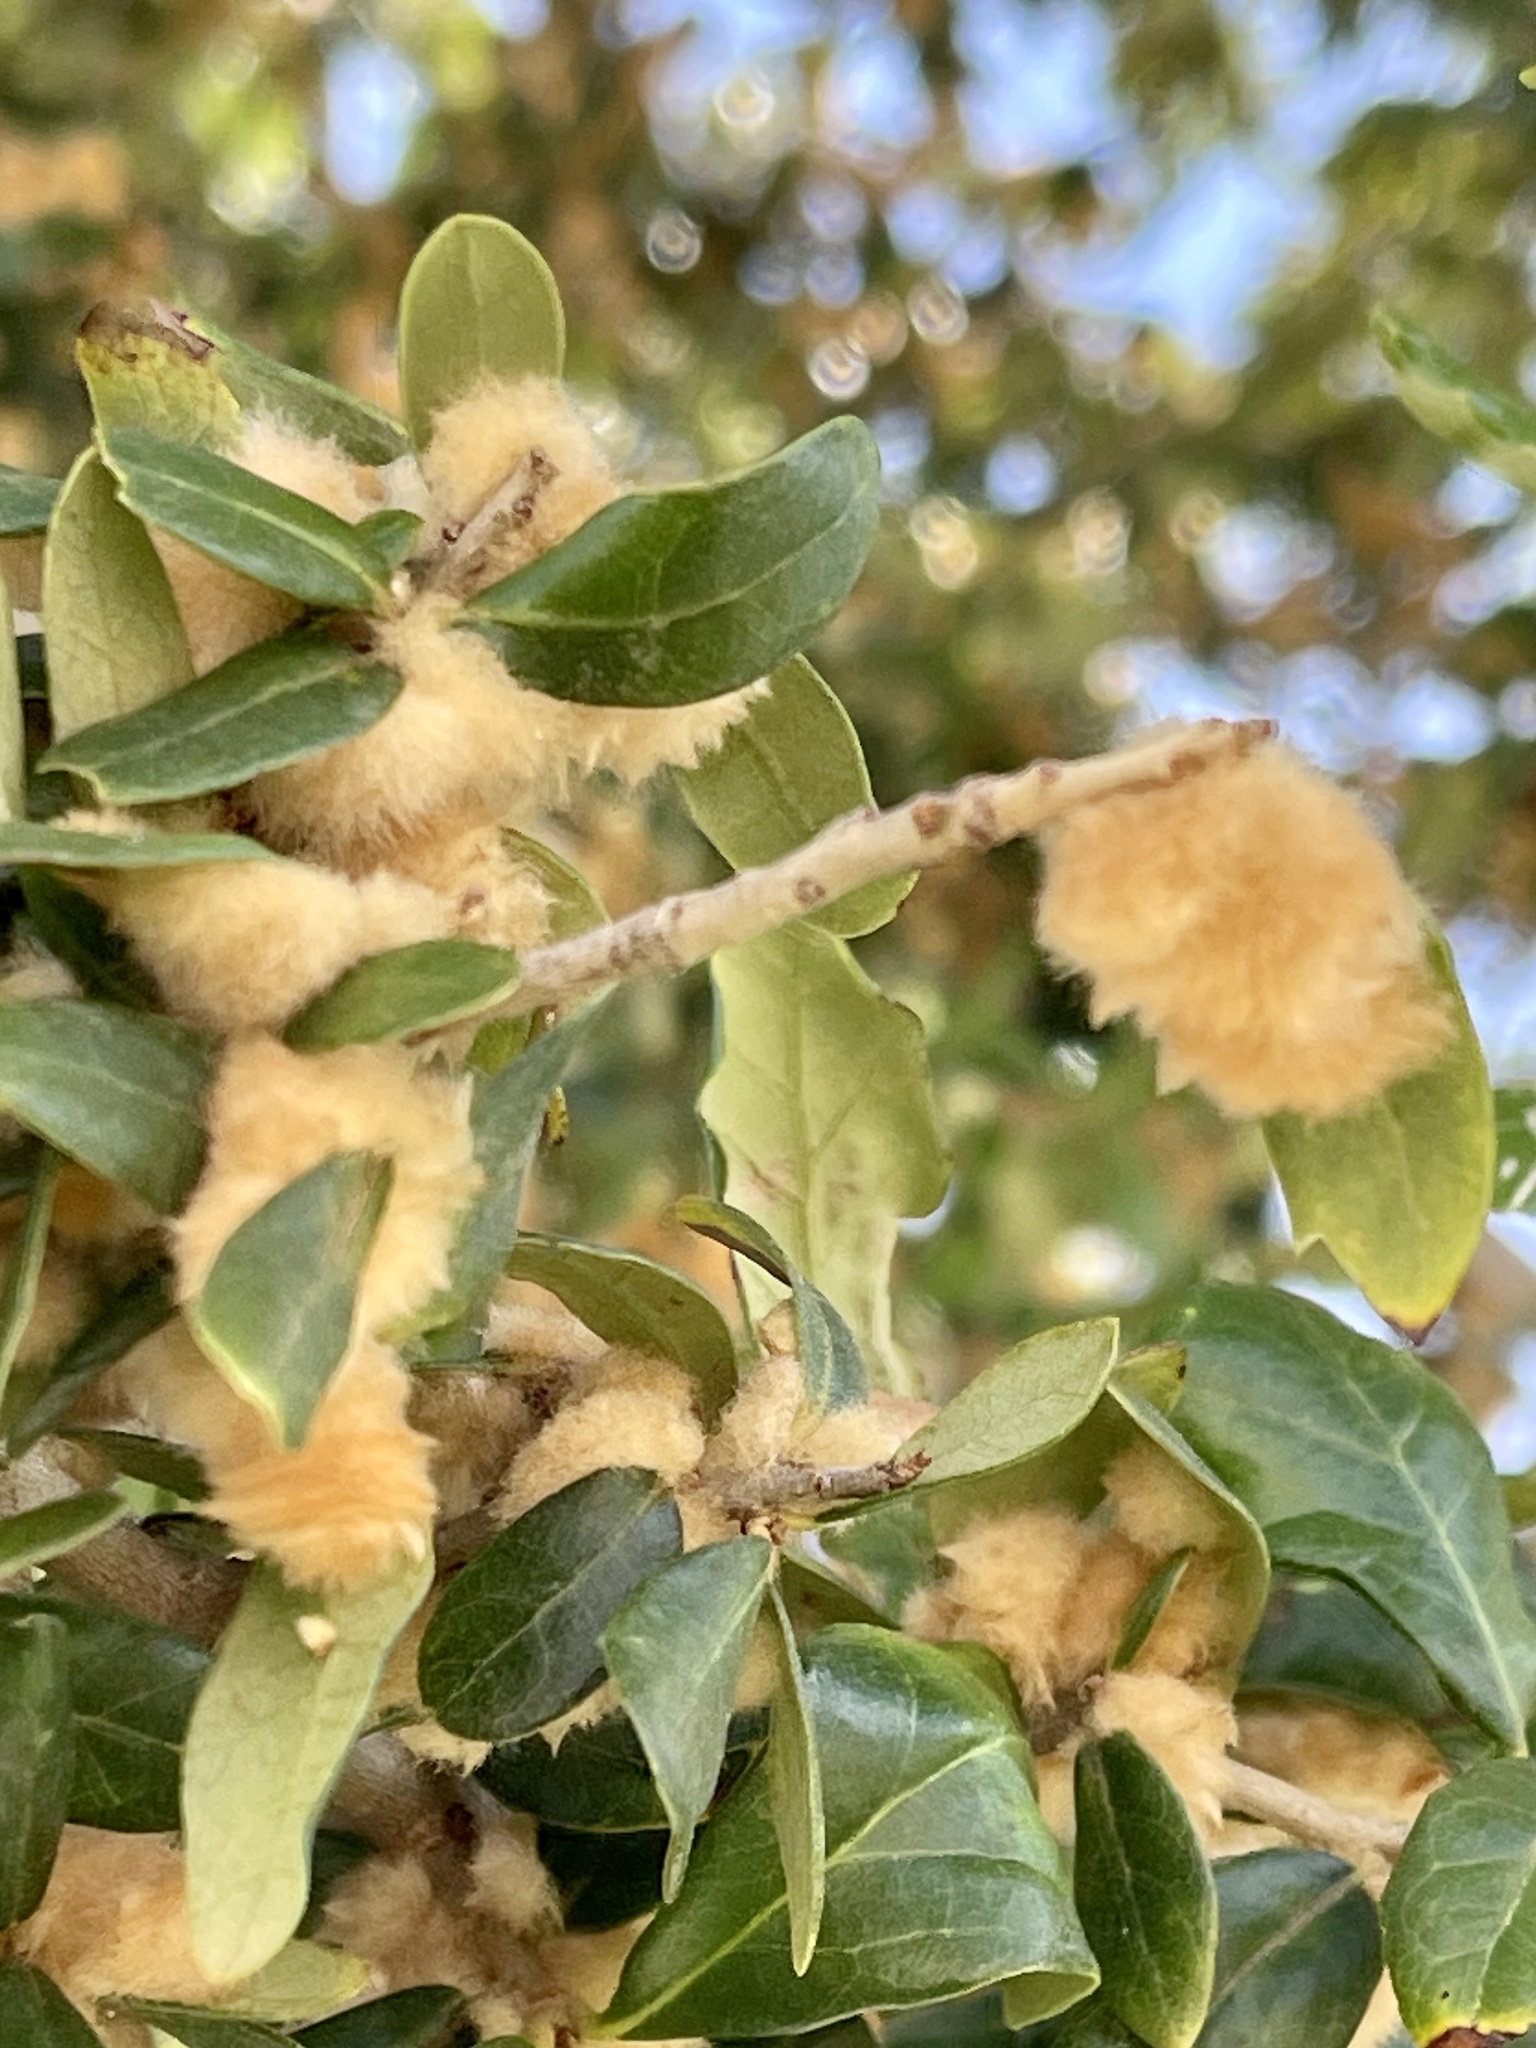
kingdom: Animalia
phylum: Arthropoda
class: Insecta
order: Hymenoptera
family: Cynipidae
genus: Andricus
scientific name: Andricus Druon quercuslanigerum
